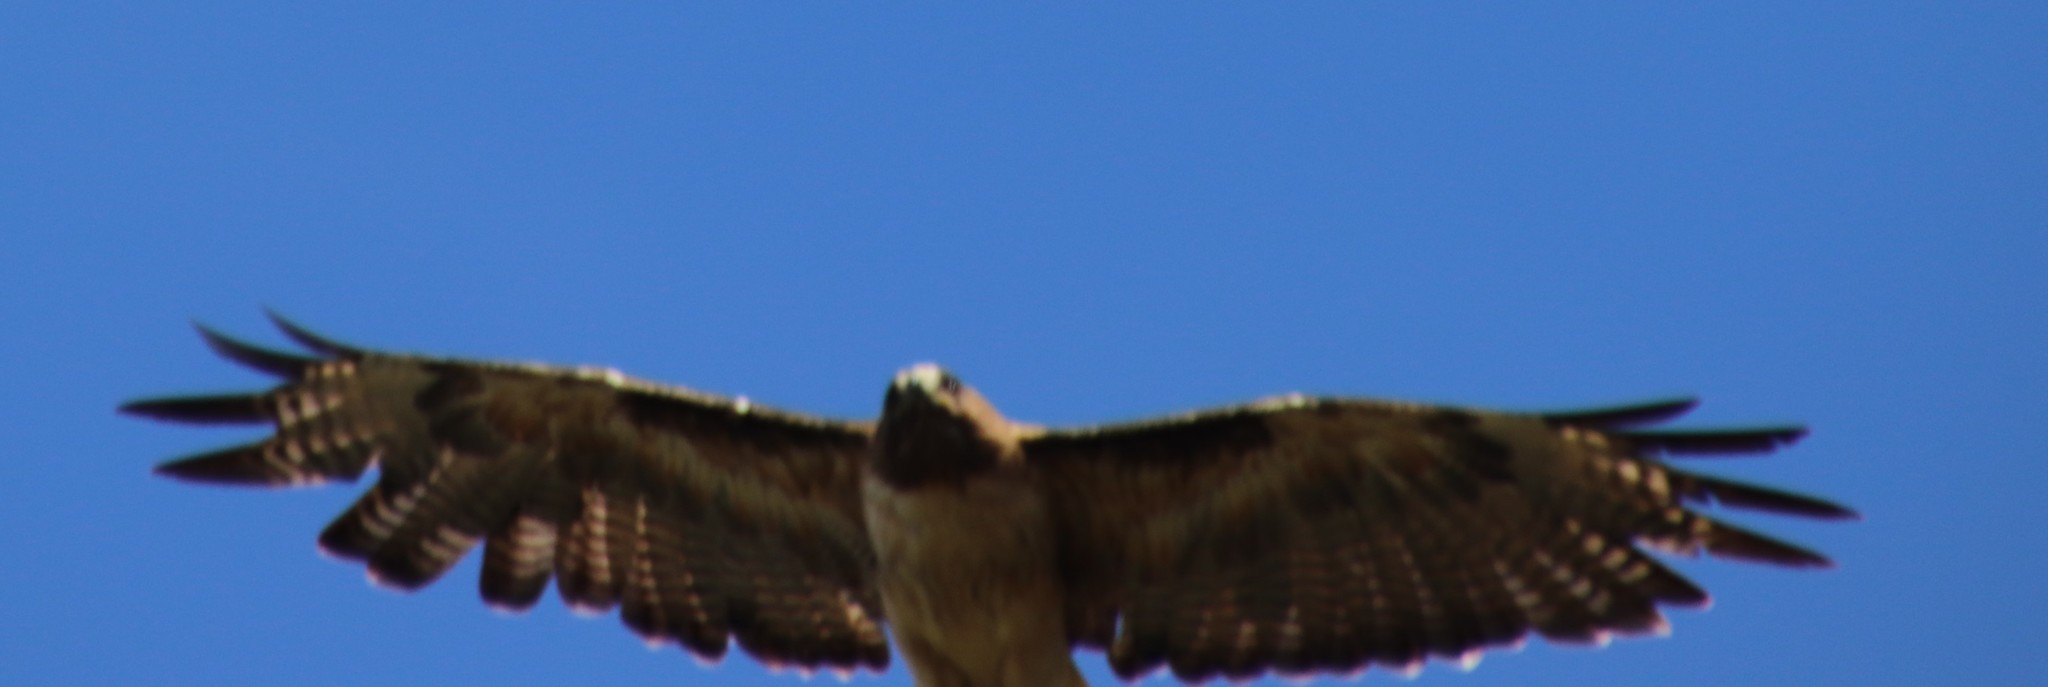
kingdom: Animalia
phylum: Chordata
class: Aves
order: Accipitriformes
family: Accipitridae
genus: Buteo
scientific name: Buteo jamaicensis
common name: Red-tailed hawk
